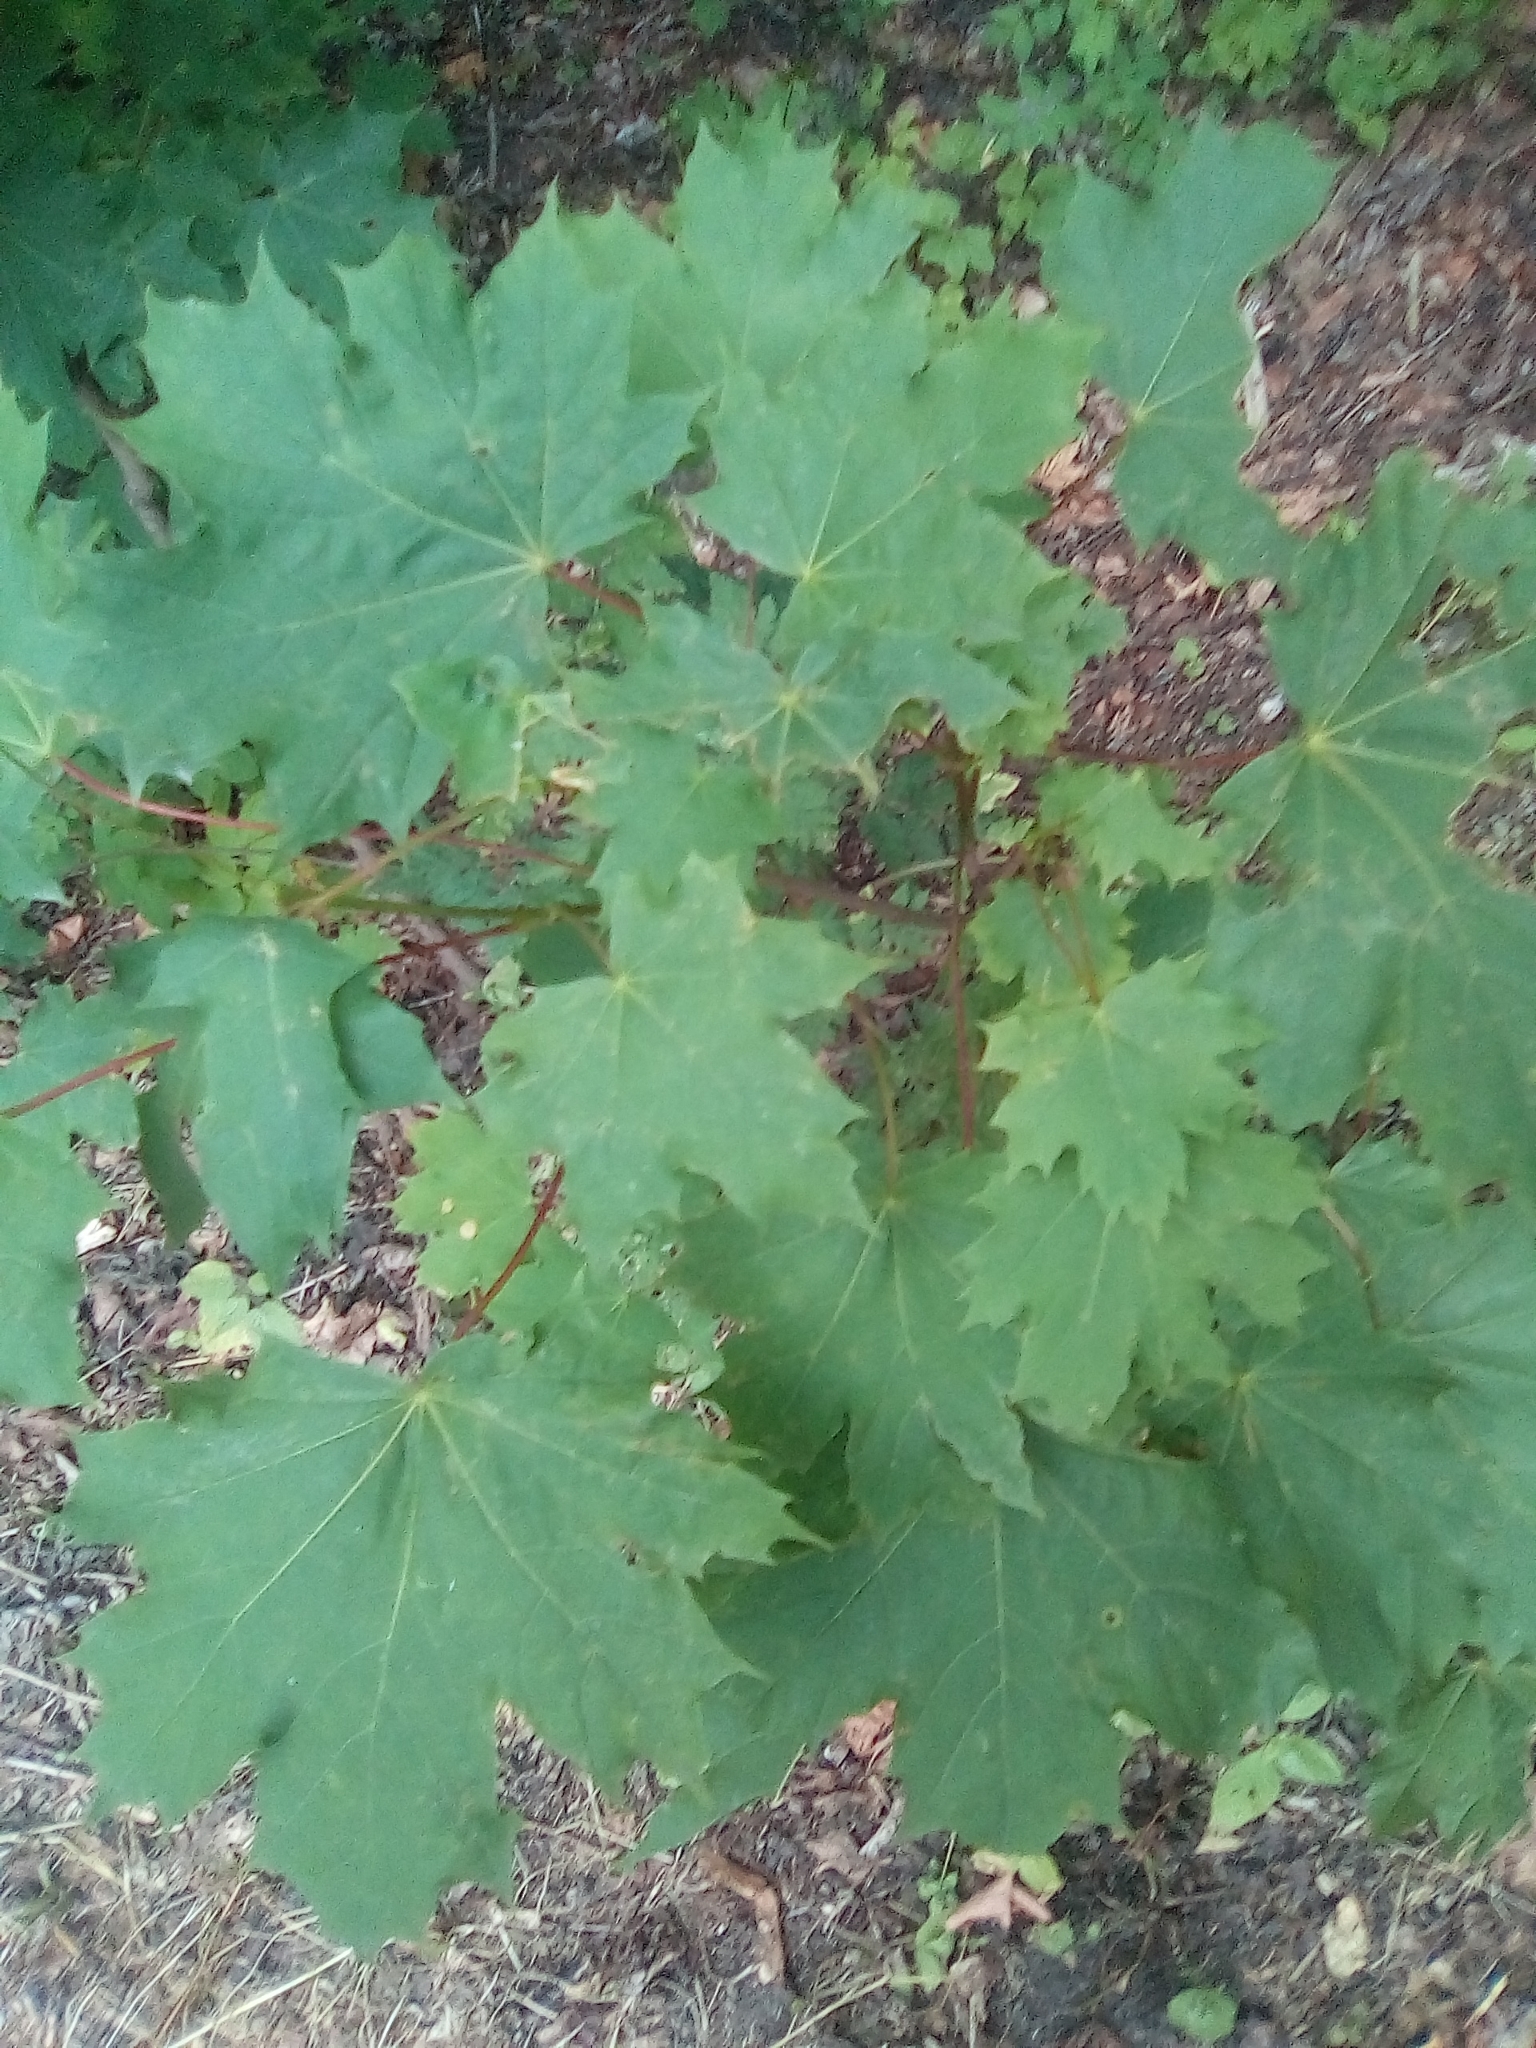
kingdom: Plantae
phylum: Tracheophyta
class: Magnoliopsida
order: Sapindales
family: Sapindaceae
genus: Acer
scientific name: Acer platanoides
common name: Norway maple
